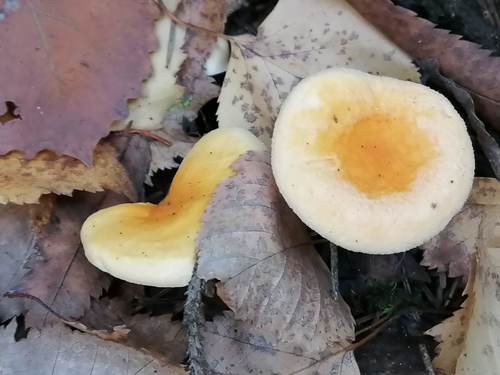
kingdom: Fungi
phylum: Basidiomycota
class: Agaricomycetes
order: Boletales
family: Hygrophoropsidaceae
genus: Hygrophoropsis
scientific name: Hygrophoropsis aurantiaca
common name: False chanterelle
